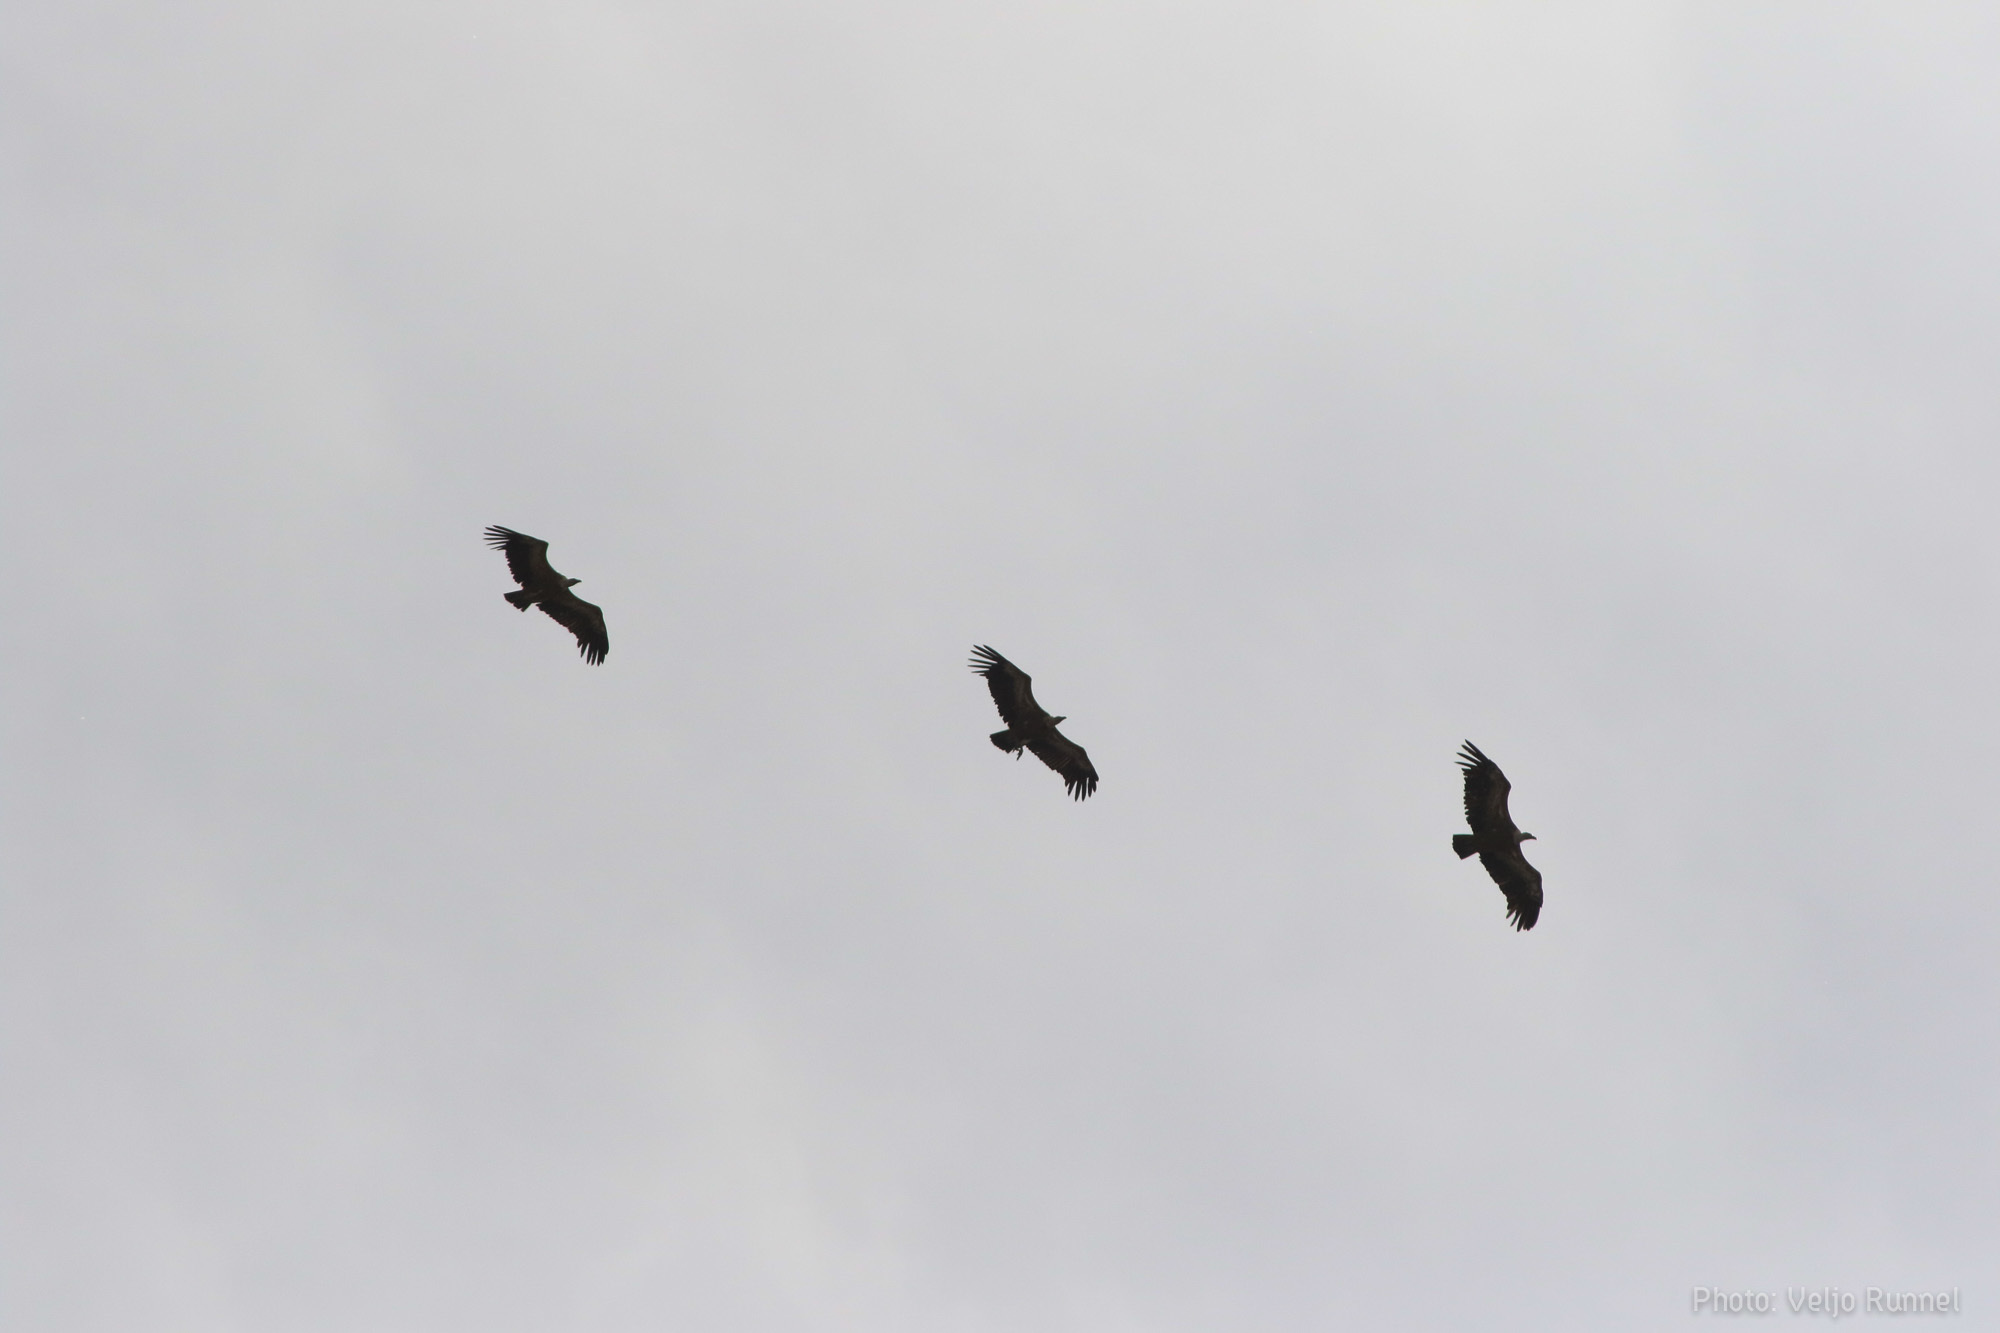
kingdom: Animalia
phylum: Chordata
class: Aves
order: Accipitriformes
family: Accipitridae
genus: Gyps
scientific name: Gyps fulvus
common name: Griffon vulture
